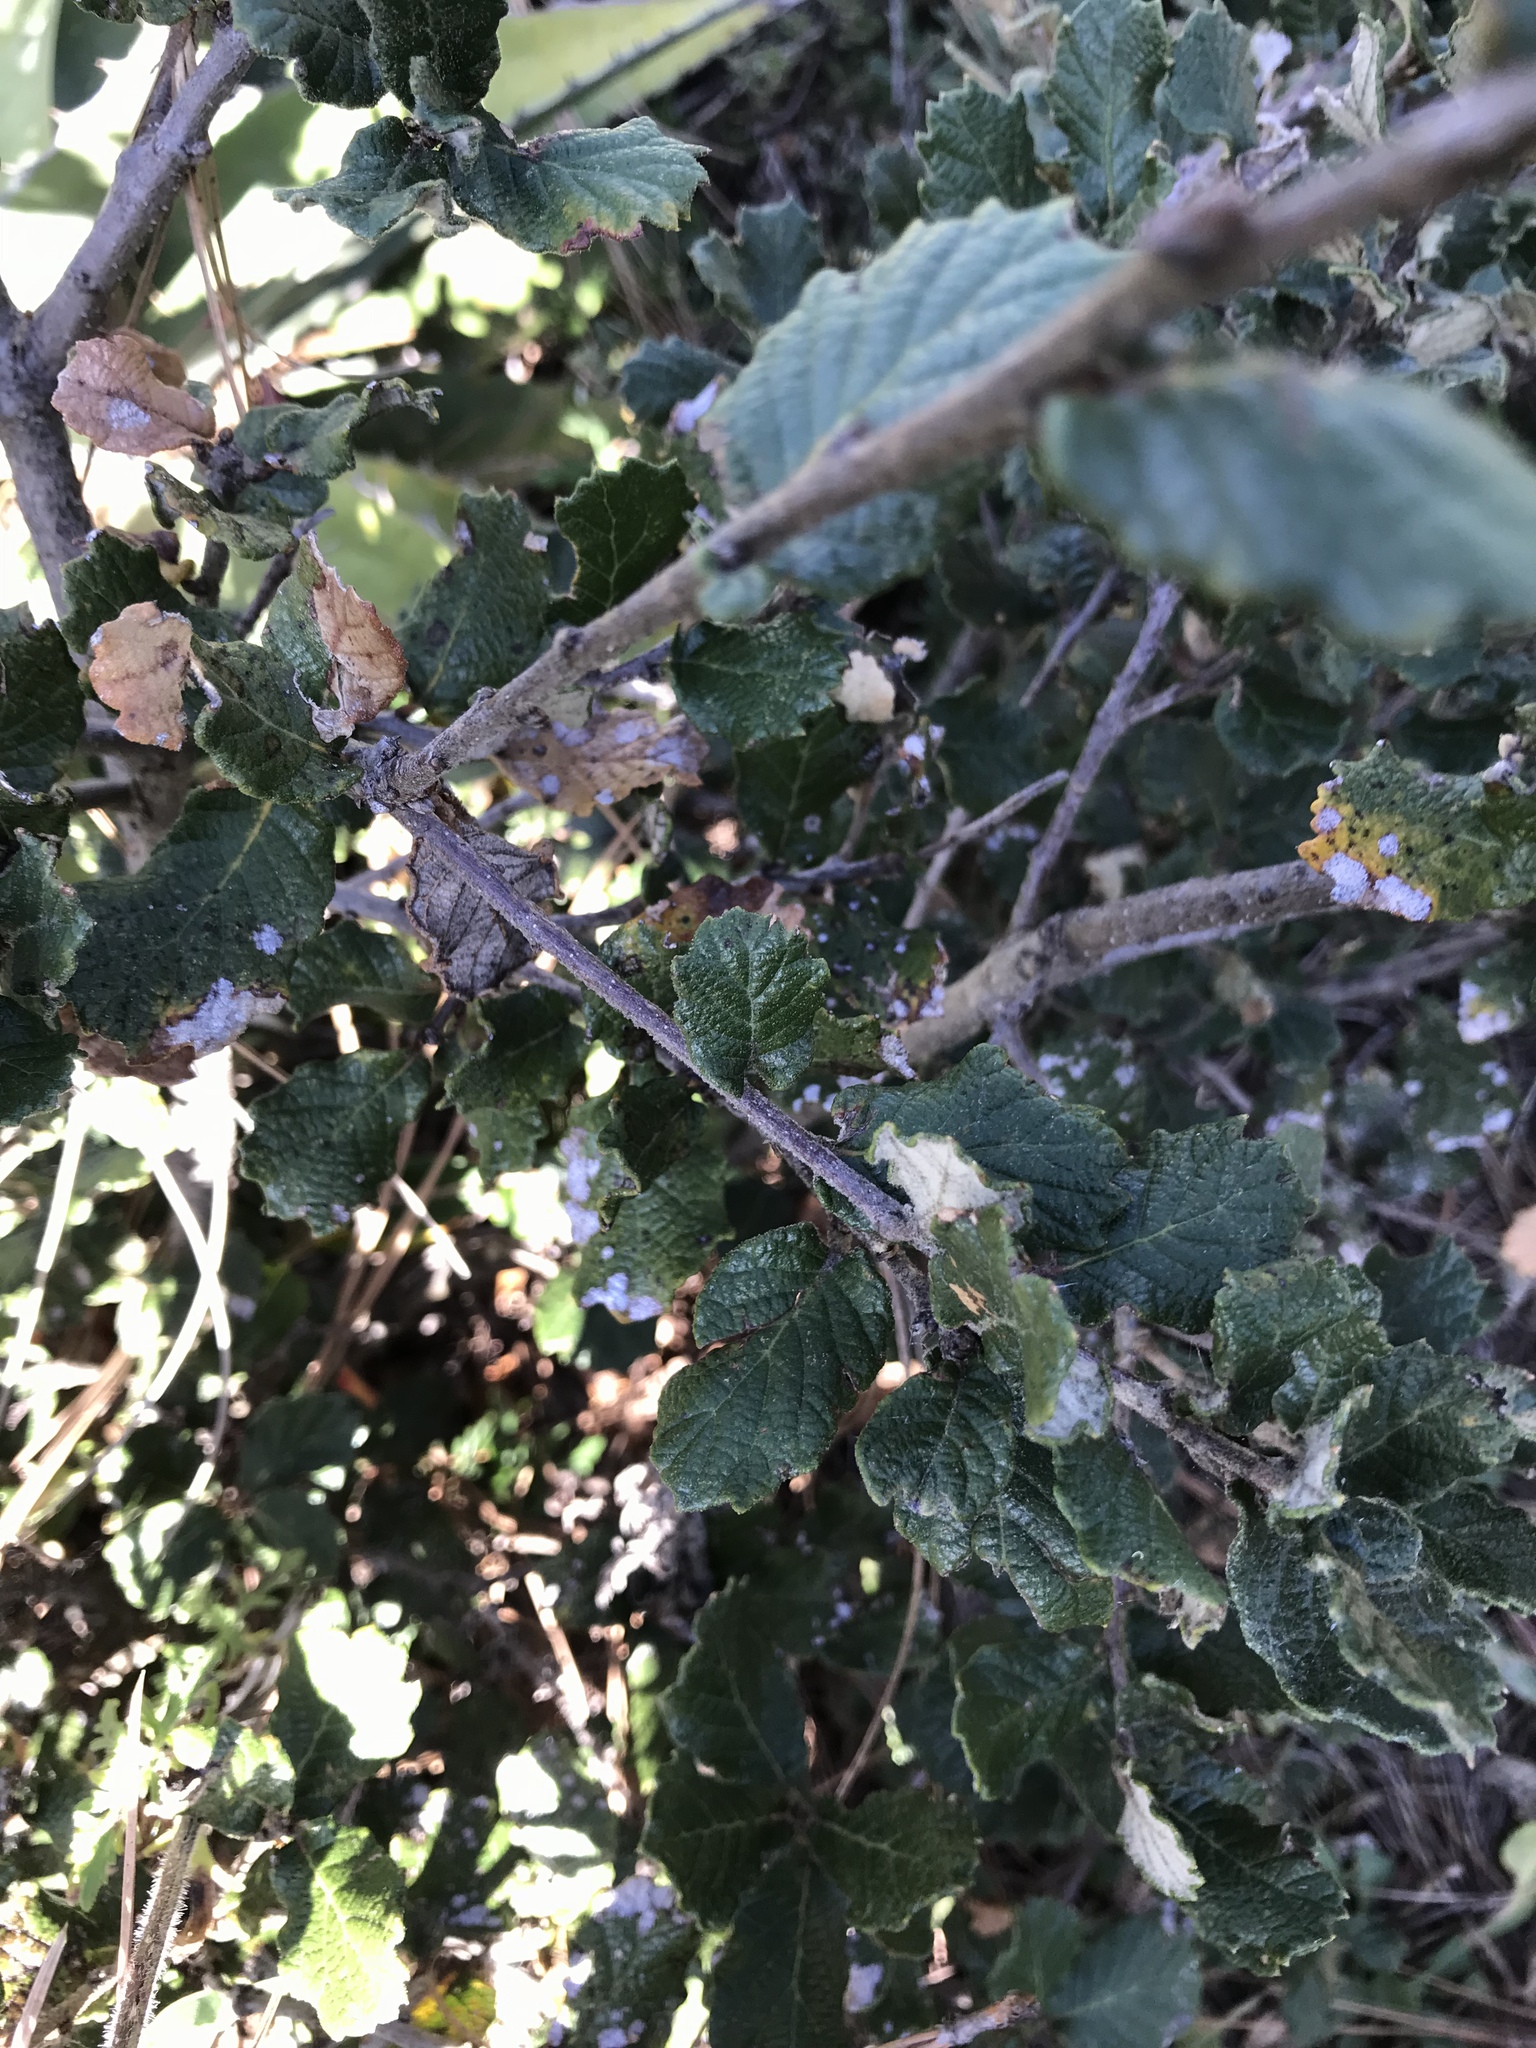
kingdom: Plantae
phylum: Tracheophyta
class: Magnoliopsida
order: Fagales
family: Fagaceae
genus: Quercus
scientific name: Quercus greggii
